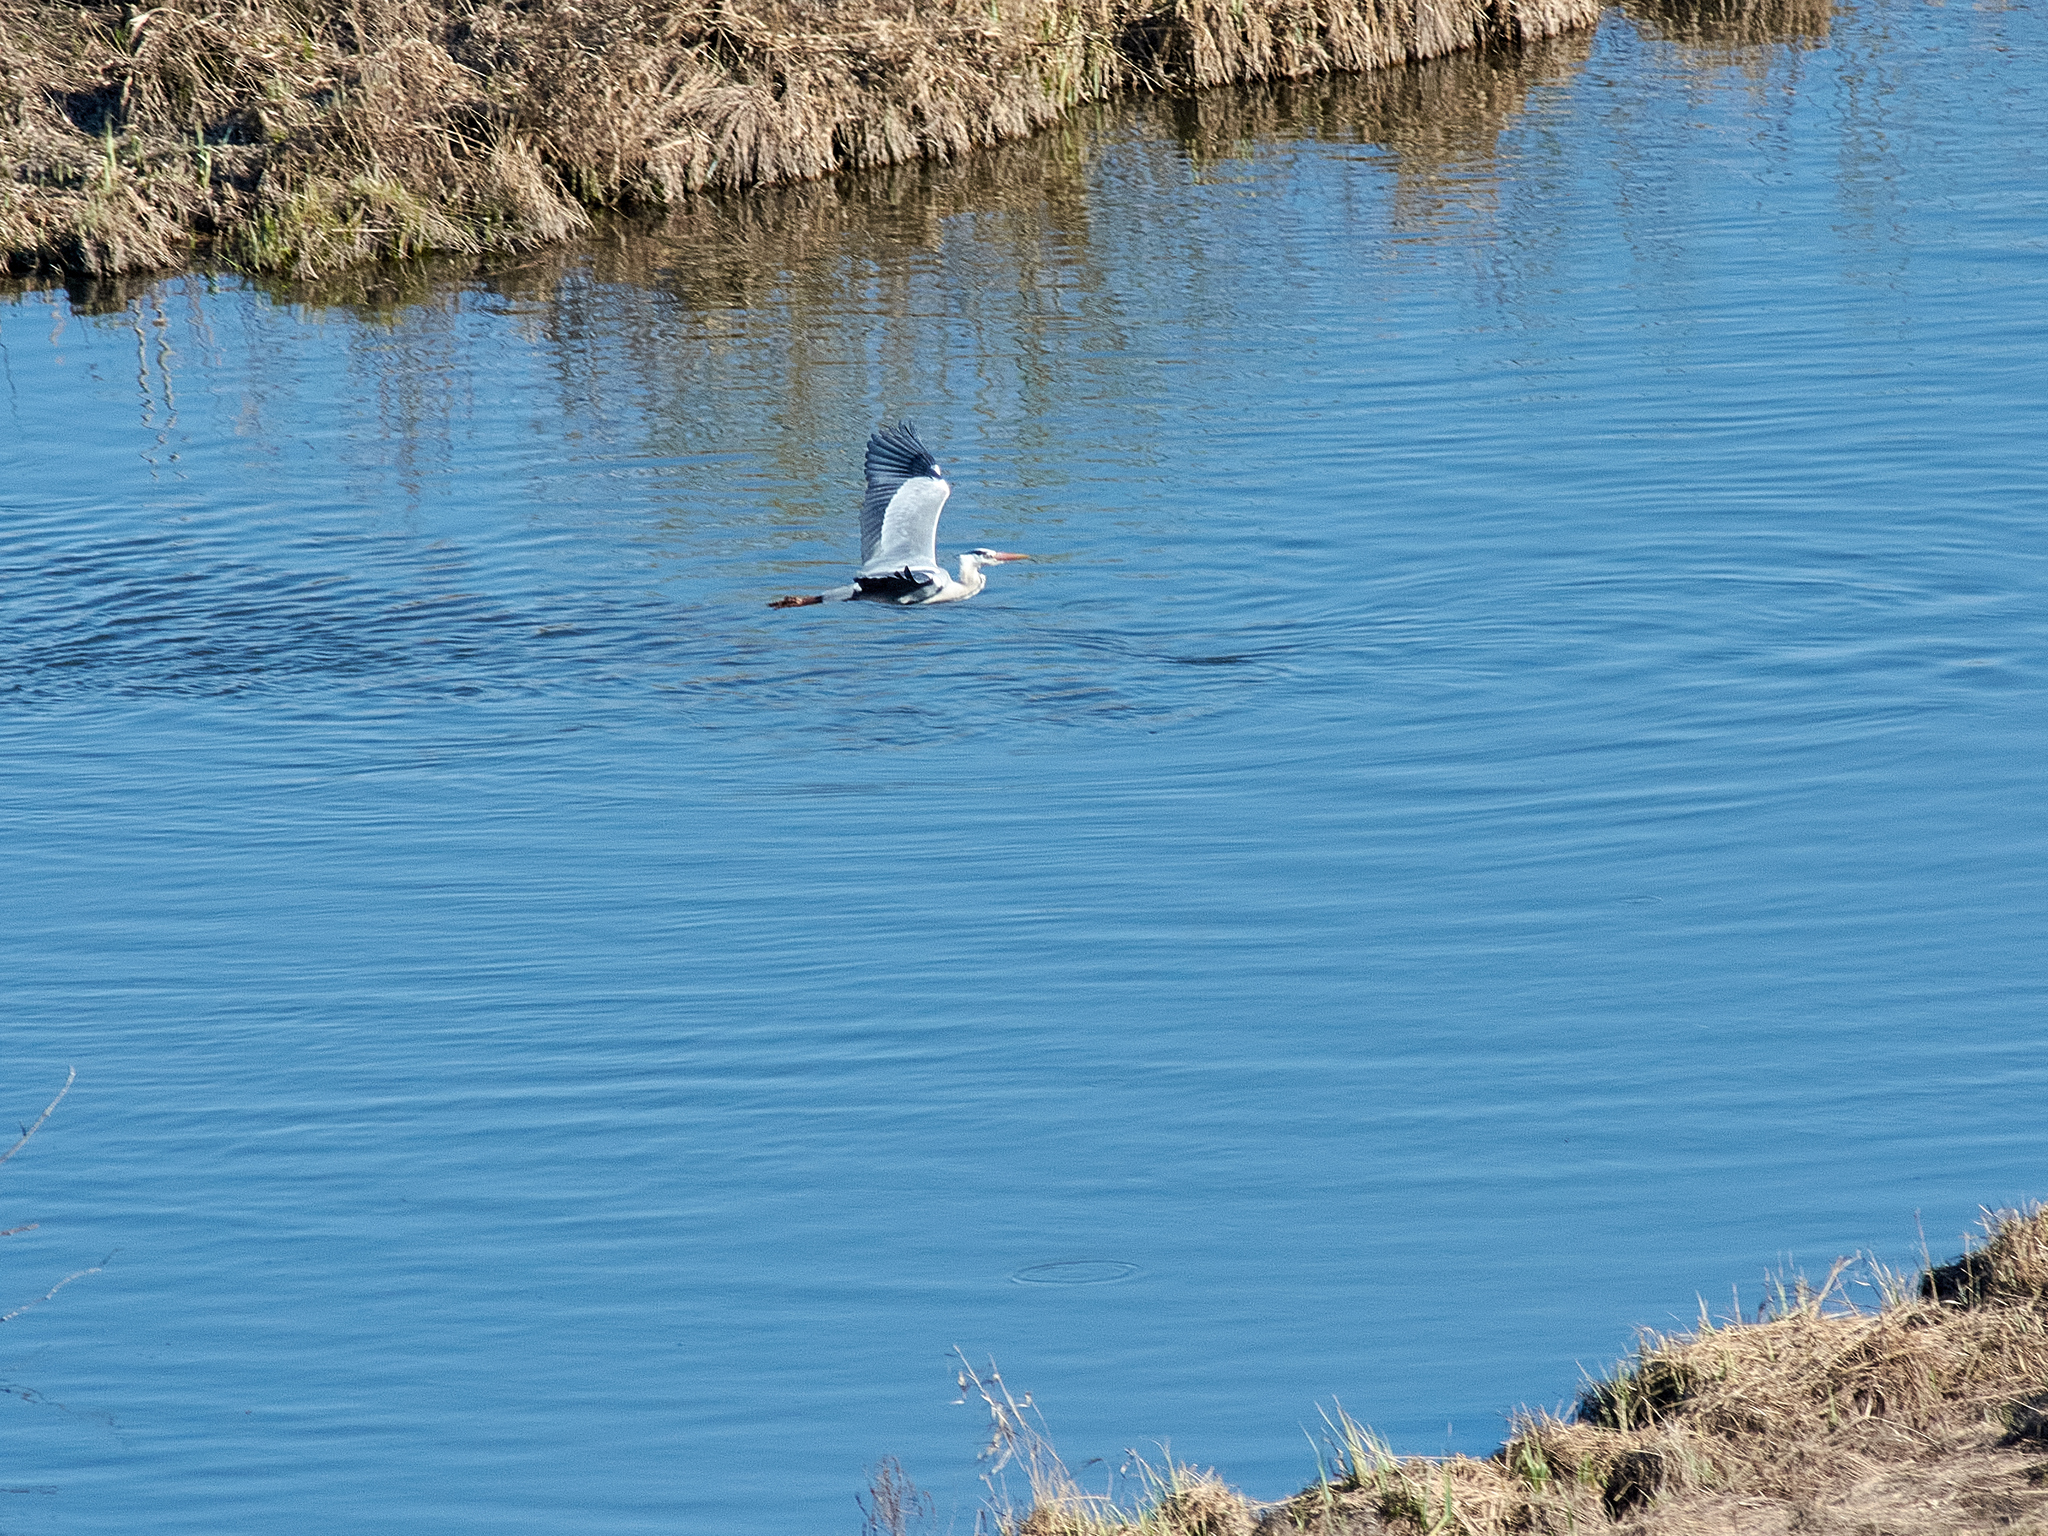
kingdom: Animalia
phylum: Chordata
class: Aves
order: Pelecaniformes
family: Ardeidae
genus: Ardea
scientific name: Ardea cinerea
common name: Grey heron
